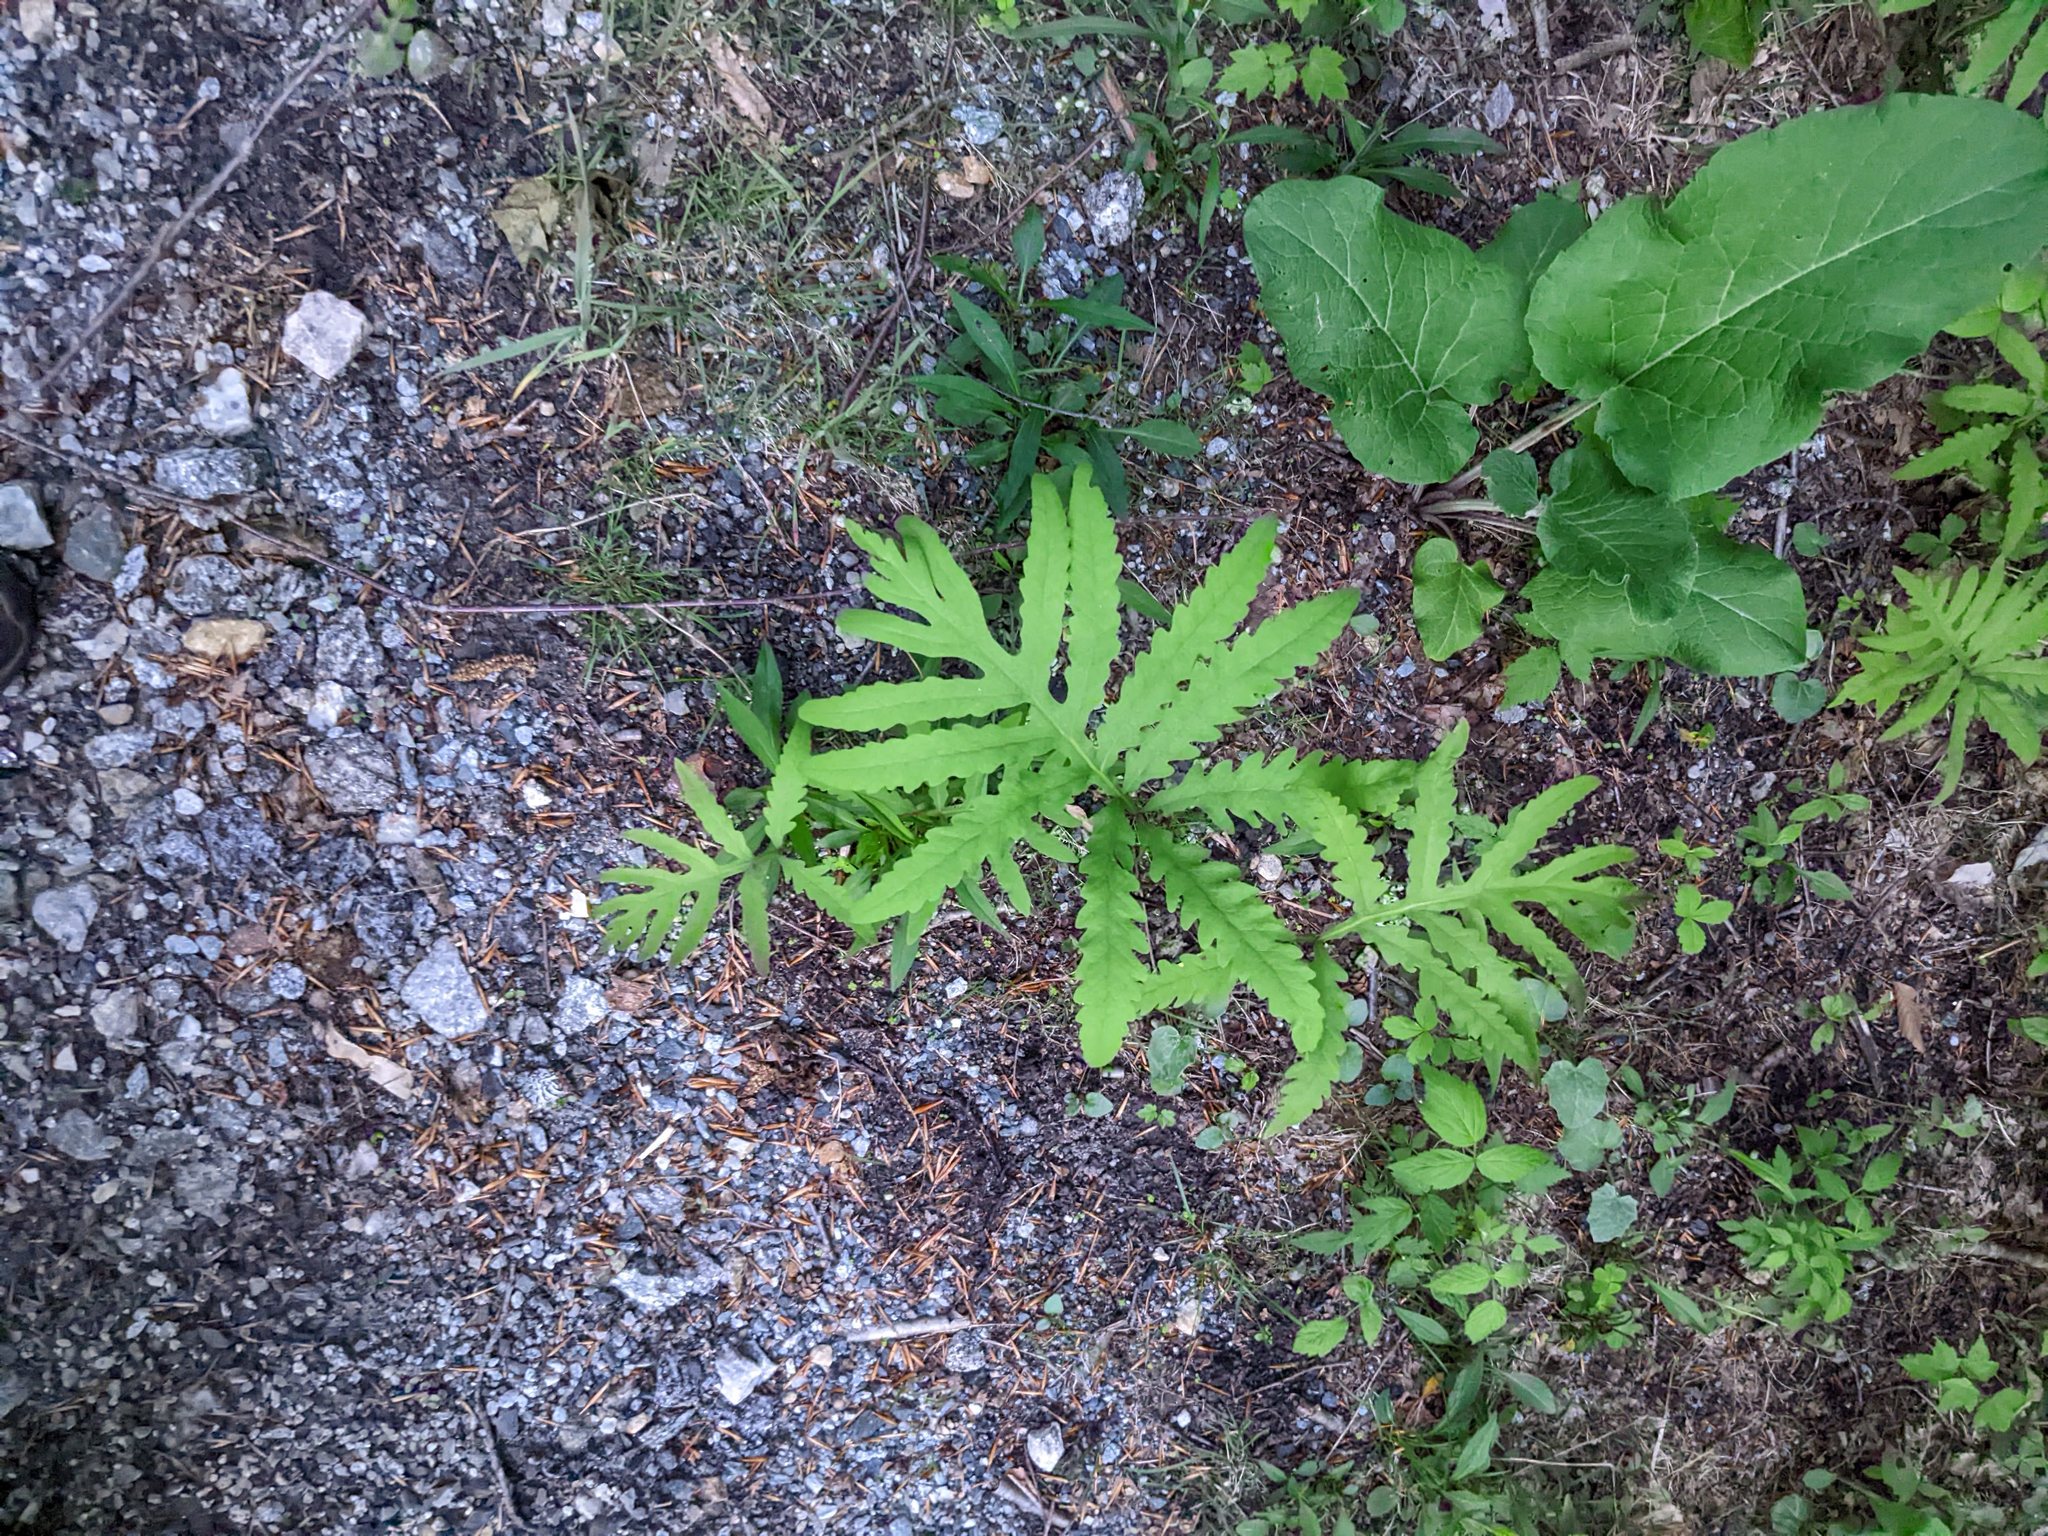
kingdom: Plantae
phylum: Tracheophyta
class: Polypodiopsida
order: Polypodiales
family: Onocleaceae
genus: Onoclea
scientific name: Onoclea sensibilis
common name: Sensitive fern
